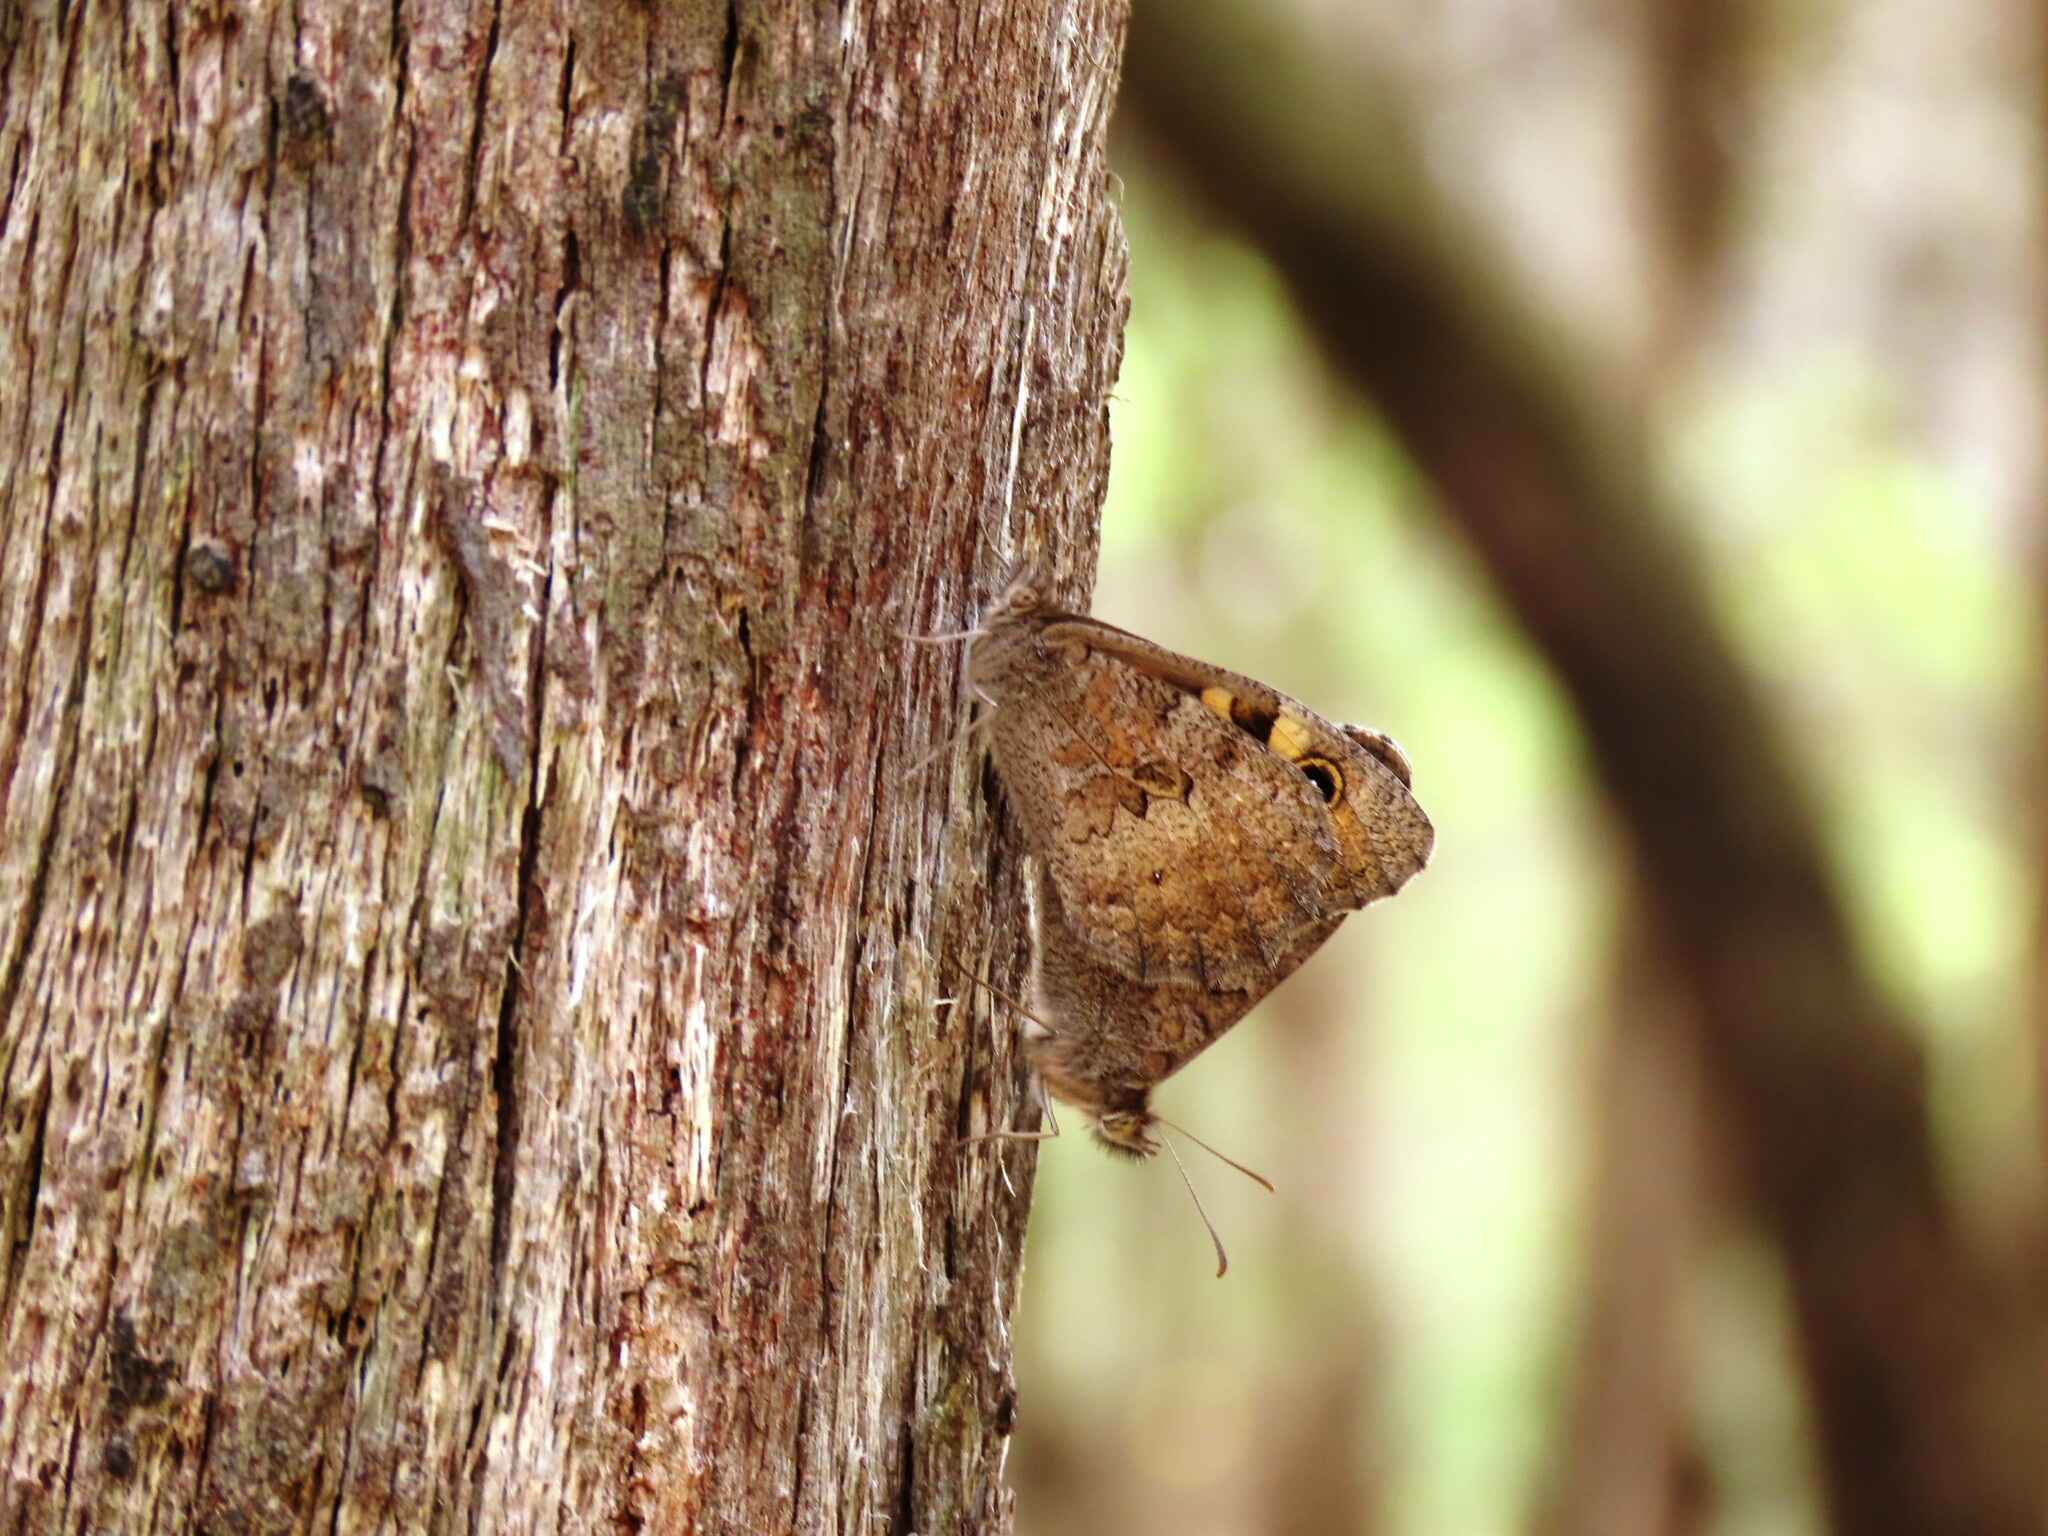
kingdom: Animalia
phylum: Arthropoda
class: Insecta
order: Lepidoptera
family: Nymphalidae
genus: Geitoneura
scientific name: Geitoneura klugii
